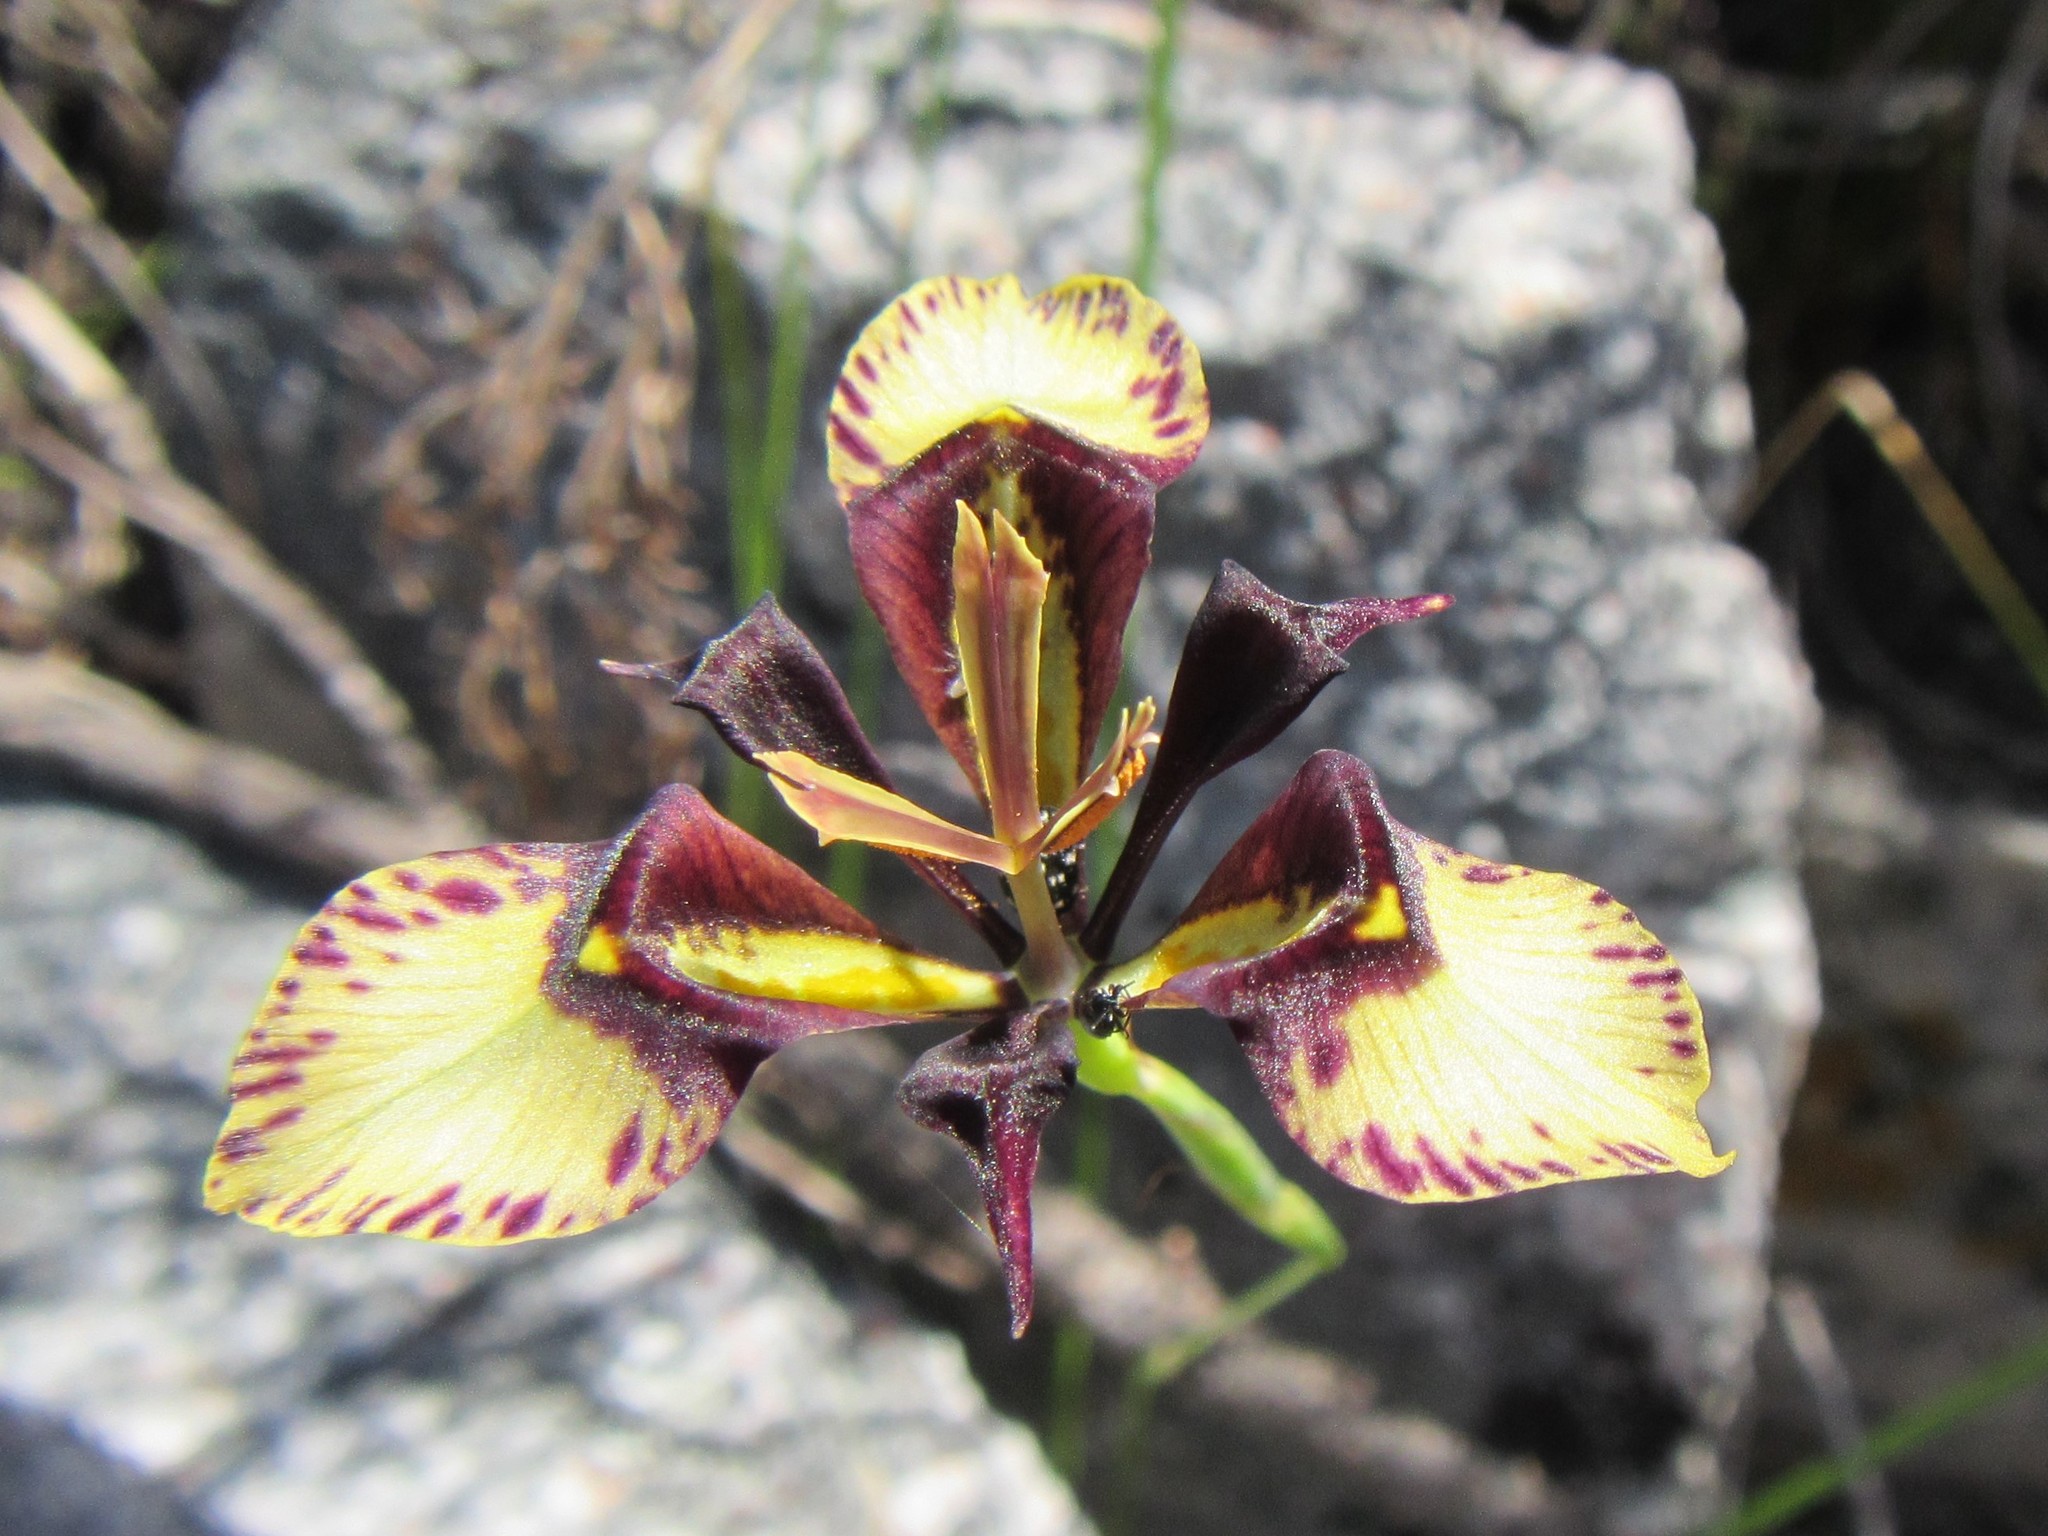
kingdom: Plantae
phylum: Tracheophyta
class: Liliopsida
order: Asparagales
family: Iridaceae
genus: Moraea
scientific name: Moraea lurida
